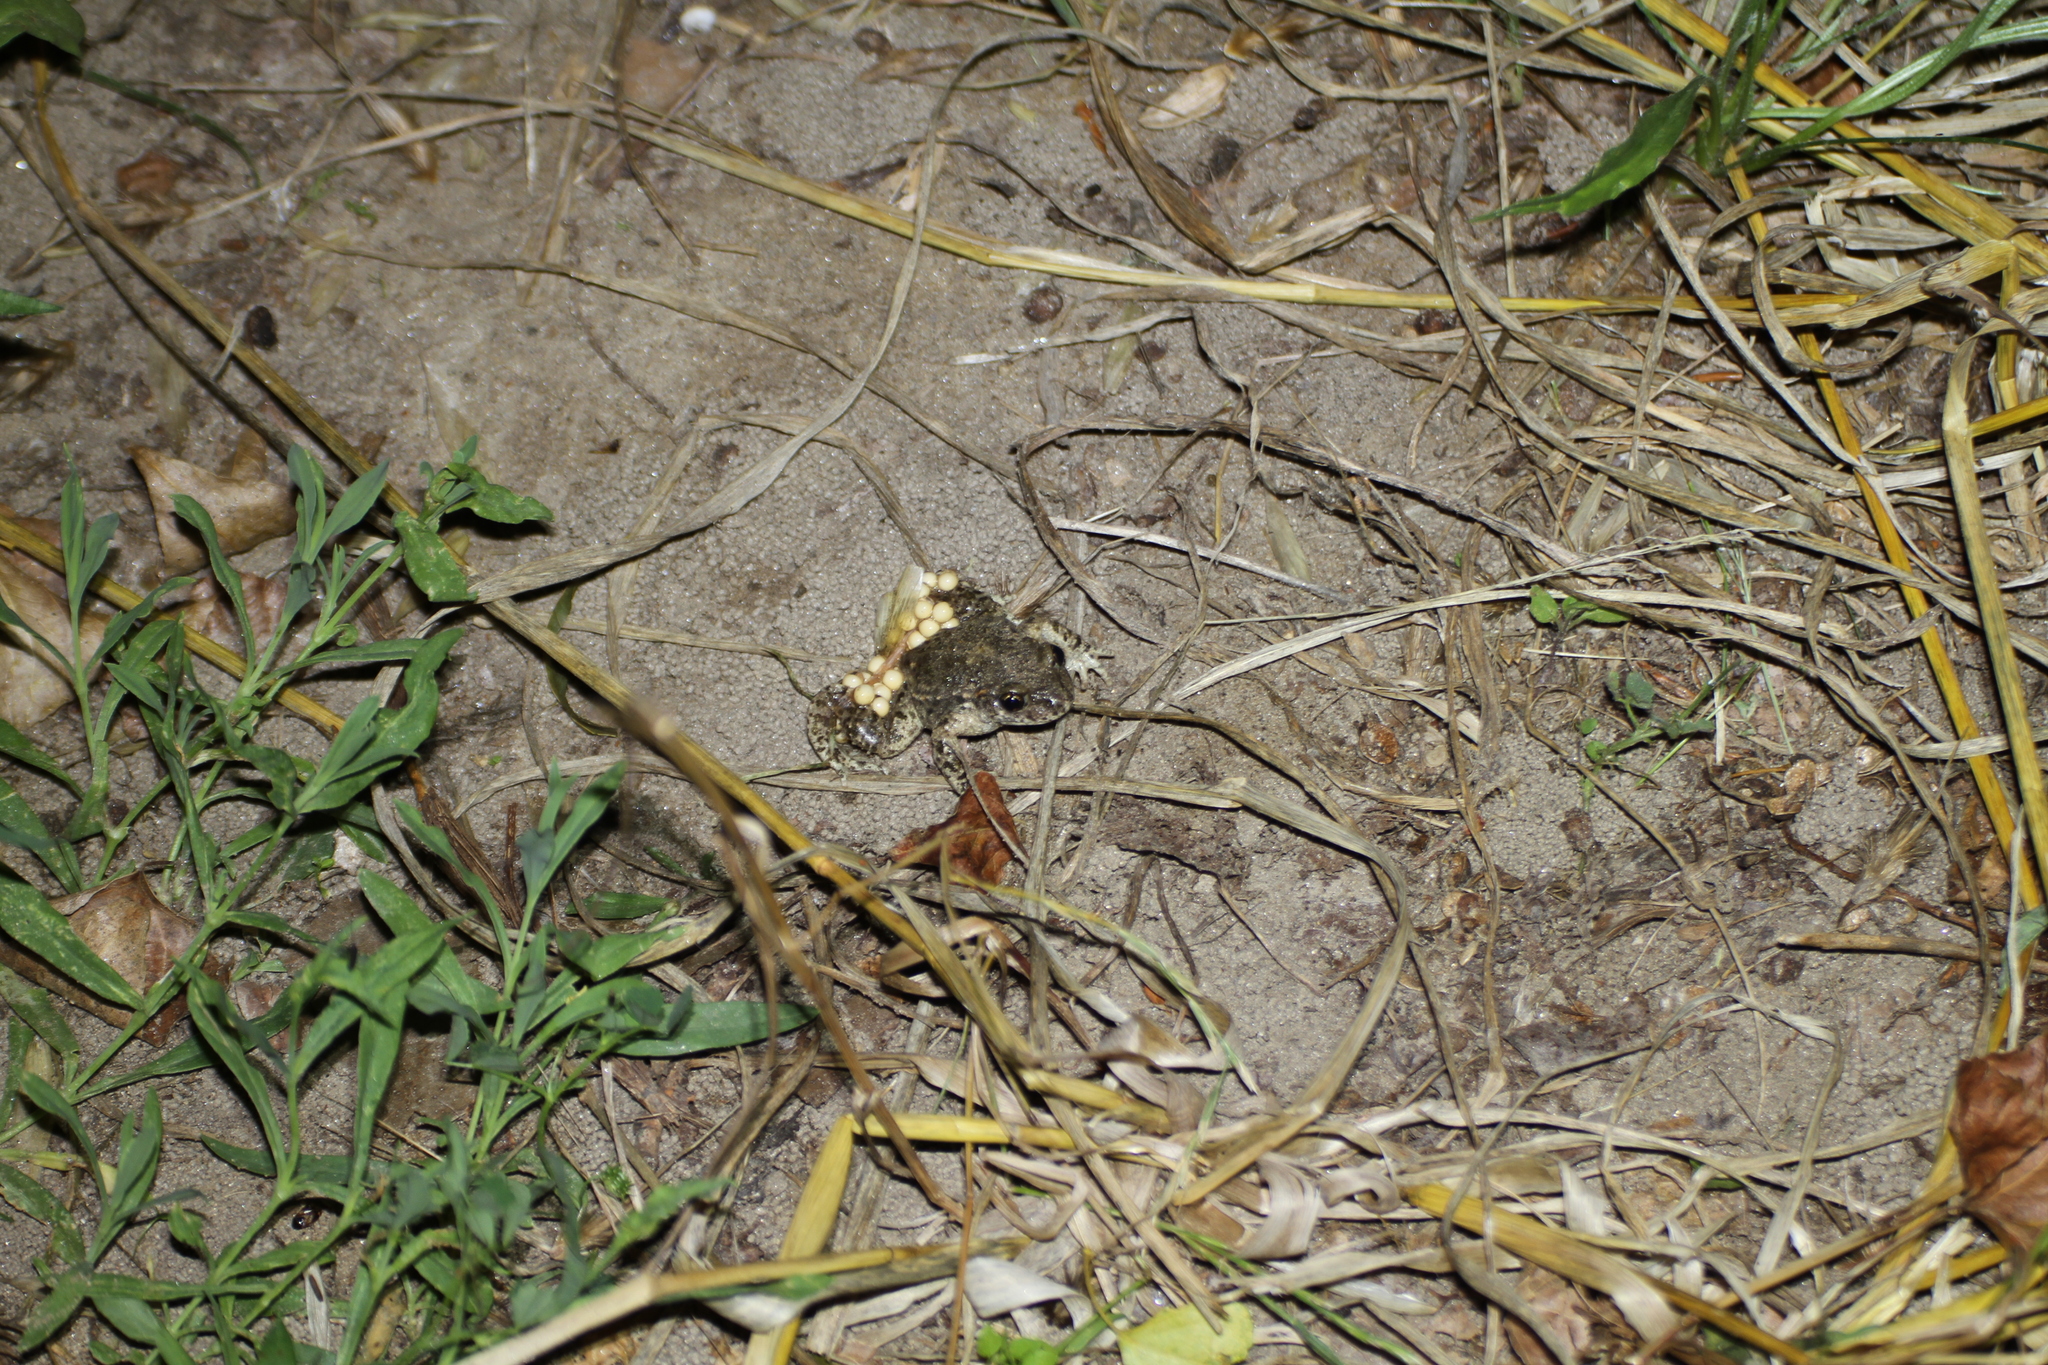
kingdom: Animalia
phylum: Chordata
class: Amphibia
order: Anura
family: Alytidae
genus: Alytes
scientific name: Alytes obstetricans
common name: Midwife toad
